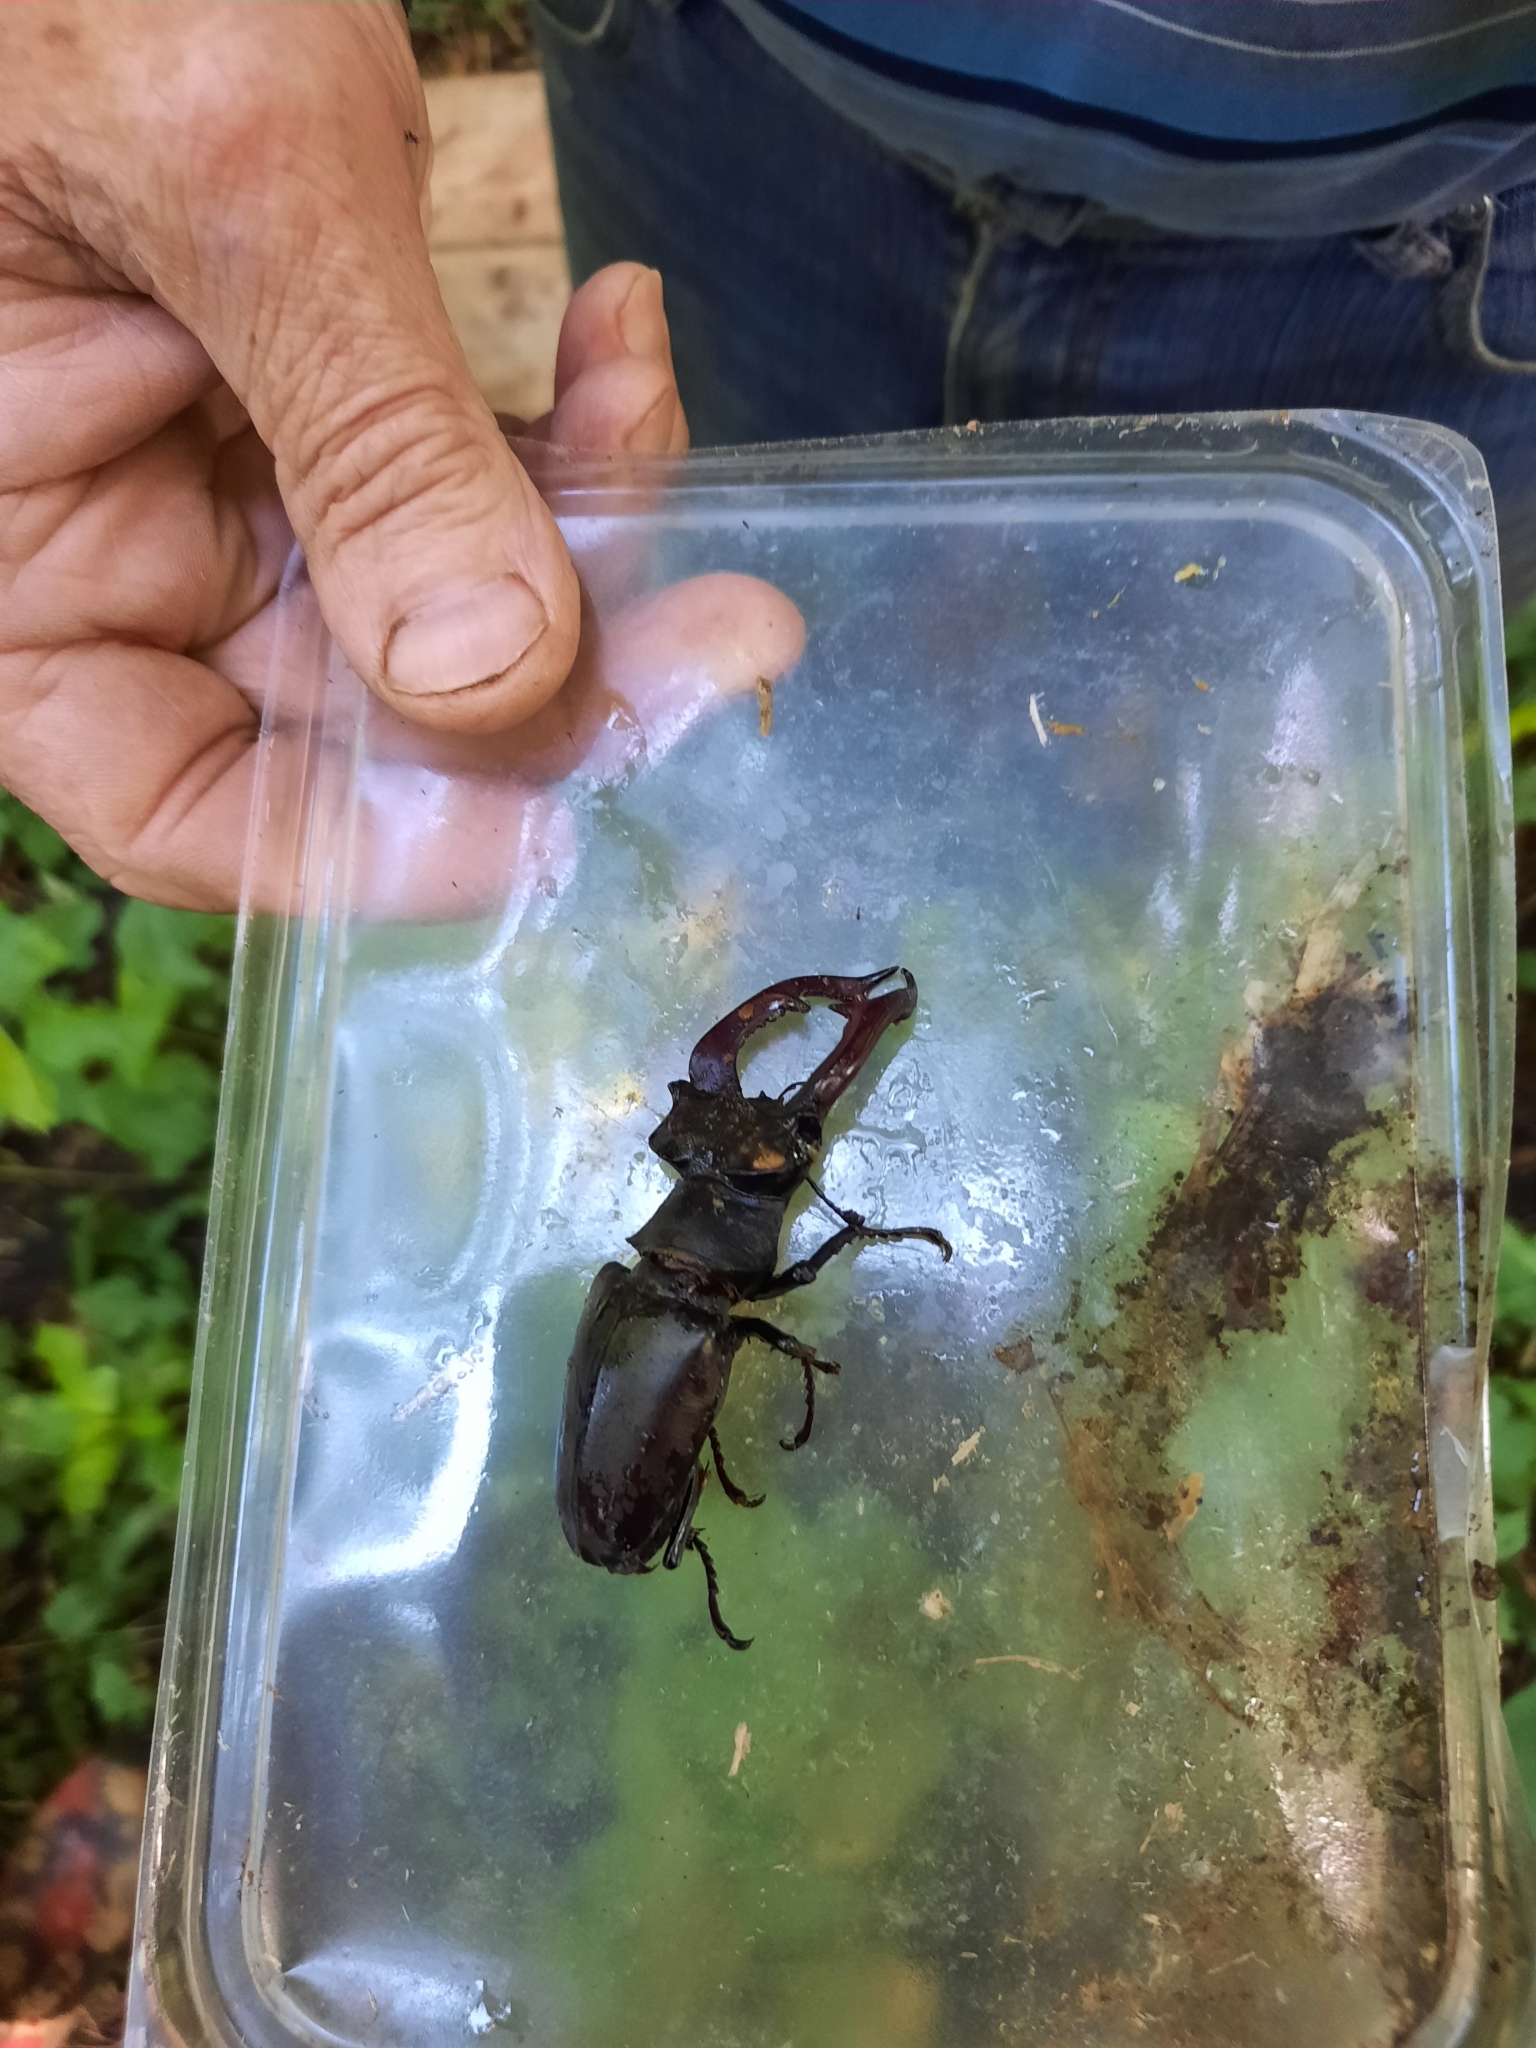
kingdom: Animalia
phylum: Arthropoda
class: Insecta
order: Coleoptera
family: Lucanidae
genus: Lucanus
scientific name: Lucanus cervus
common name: Stag beetle
